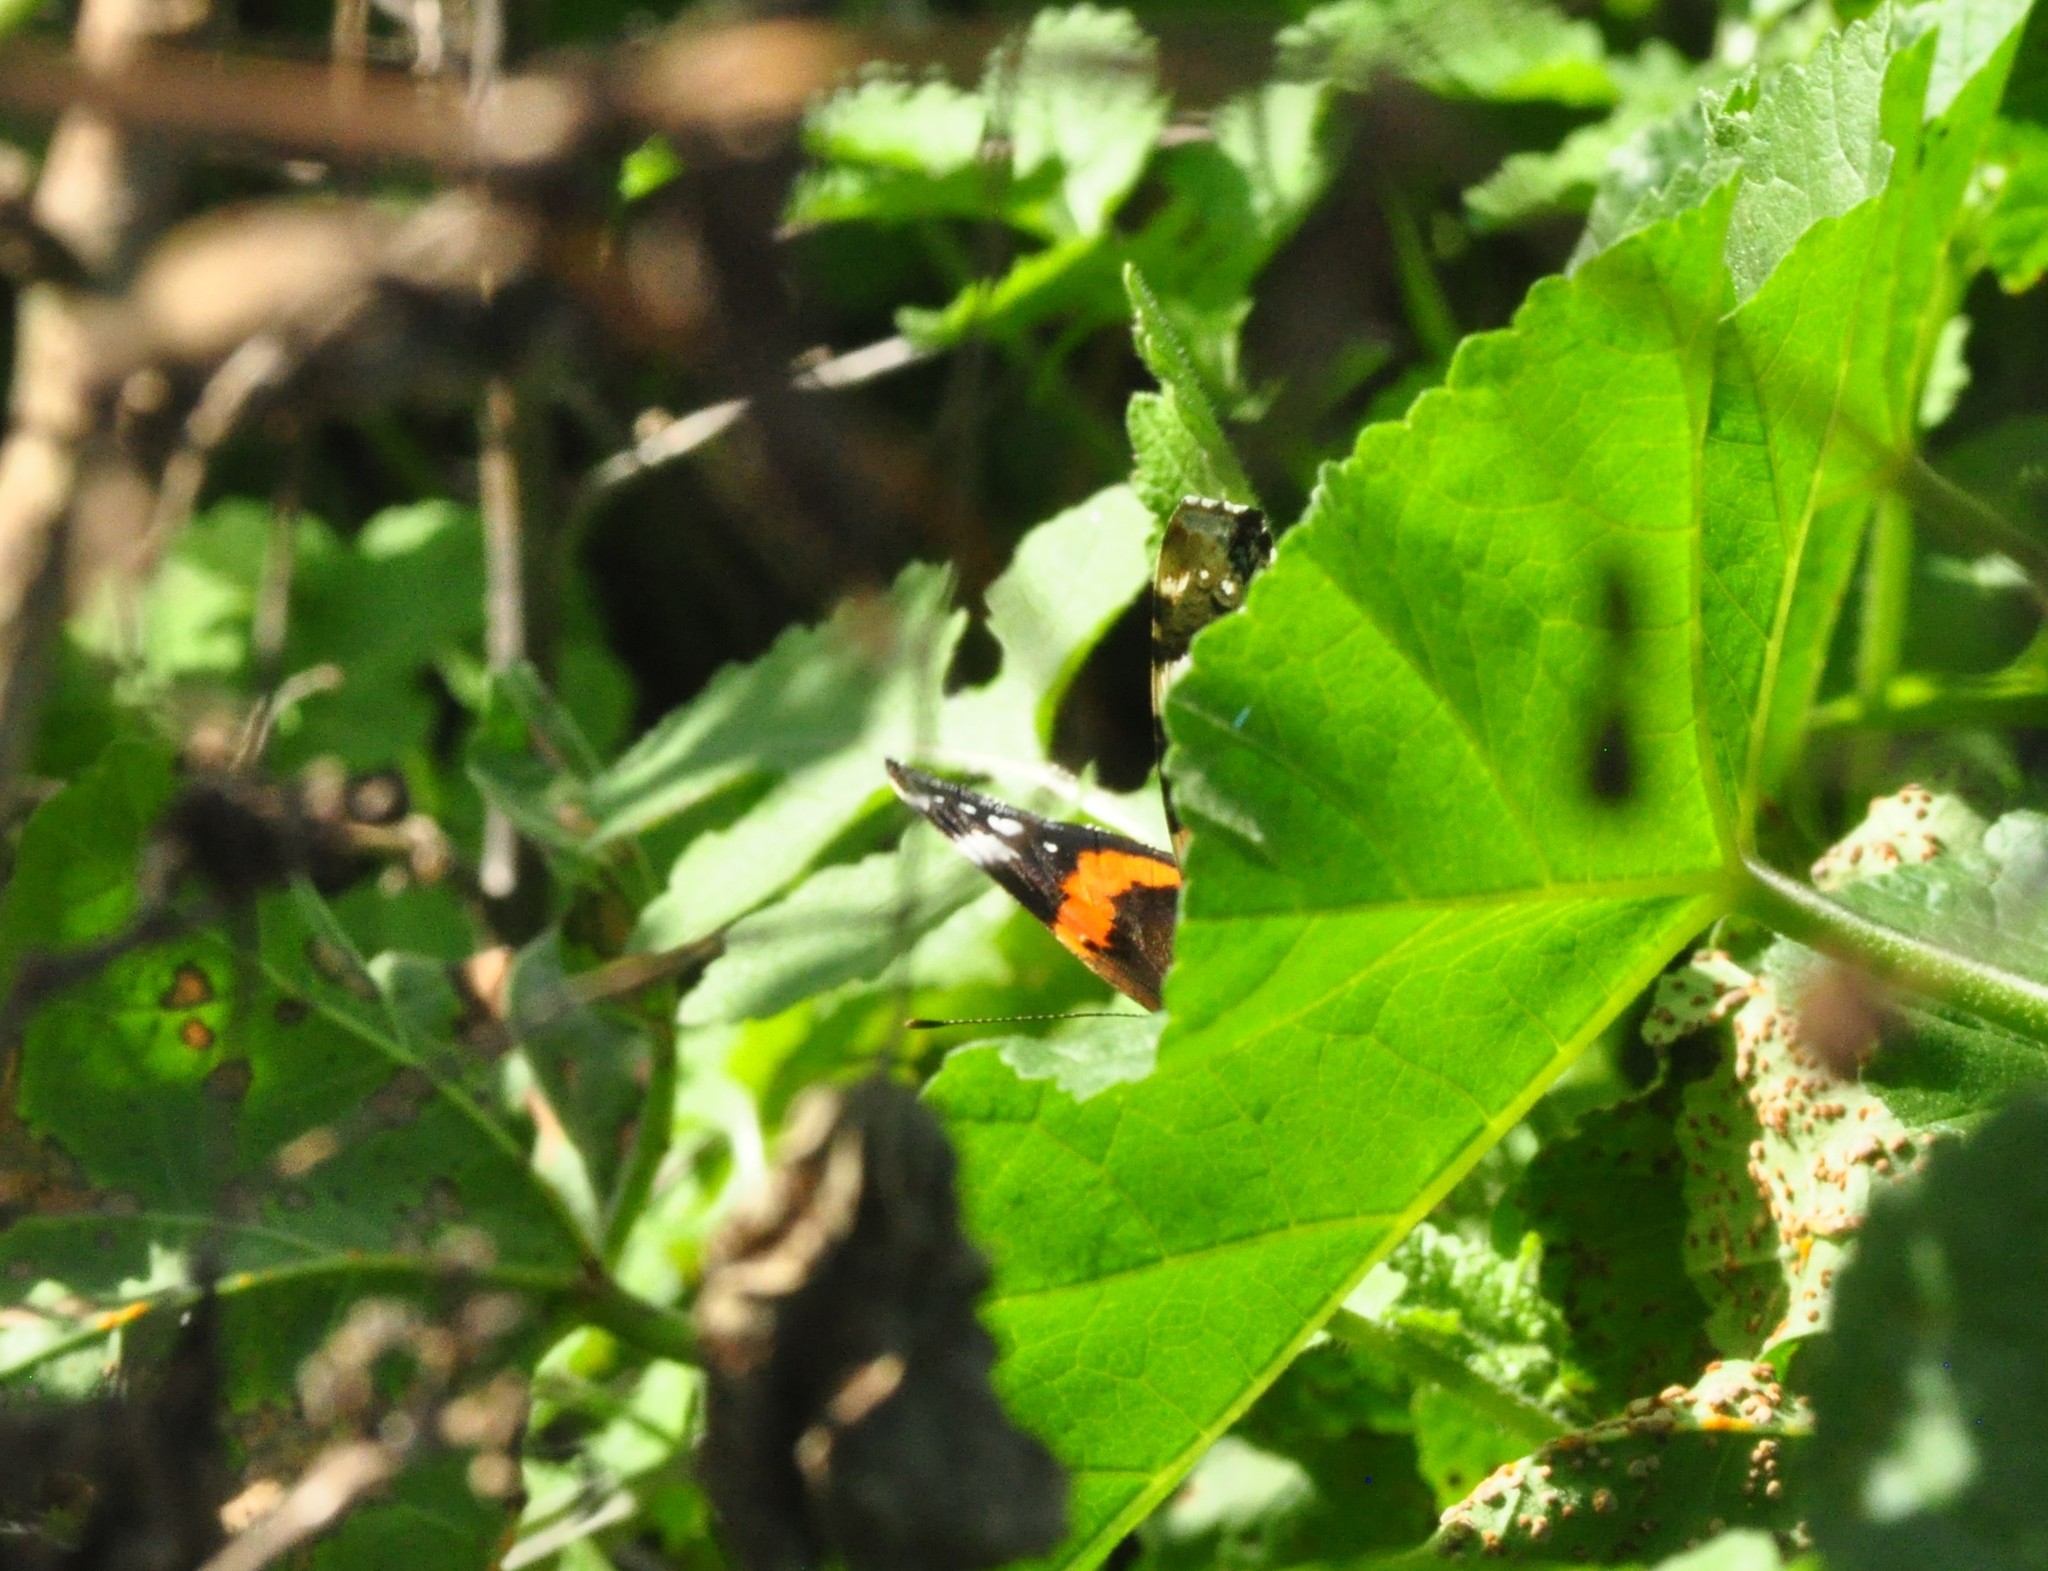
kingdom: Animalia
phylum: Arthropoda
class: Insecta
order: Lepidoptera
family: Nymphalidae
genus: Vanessa
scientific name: Vanessa atalanta
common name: Red admiral
